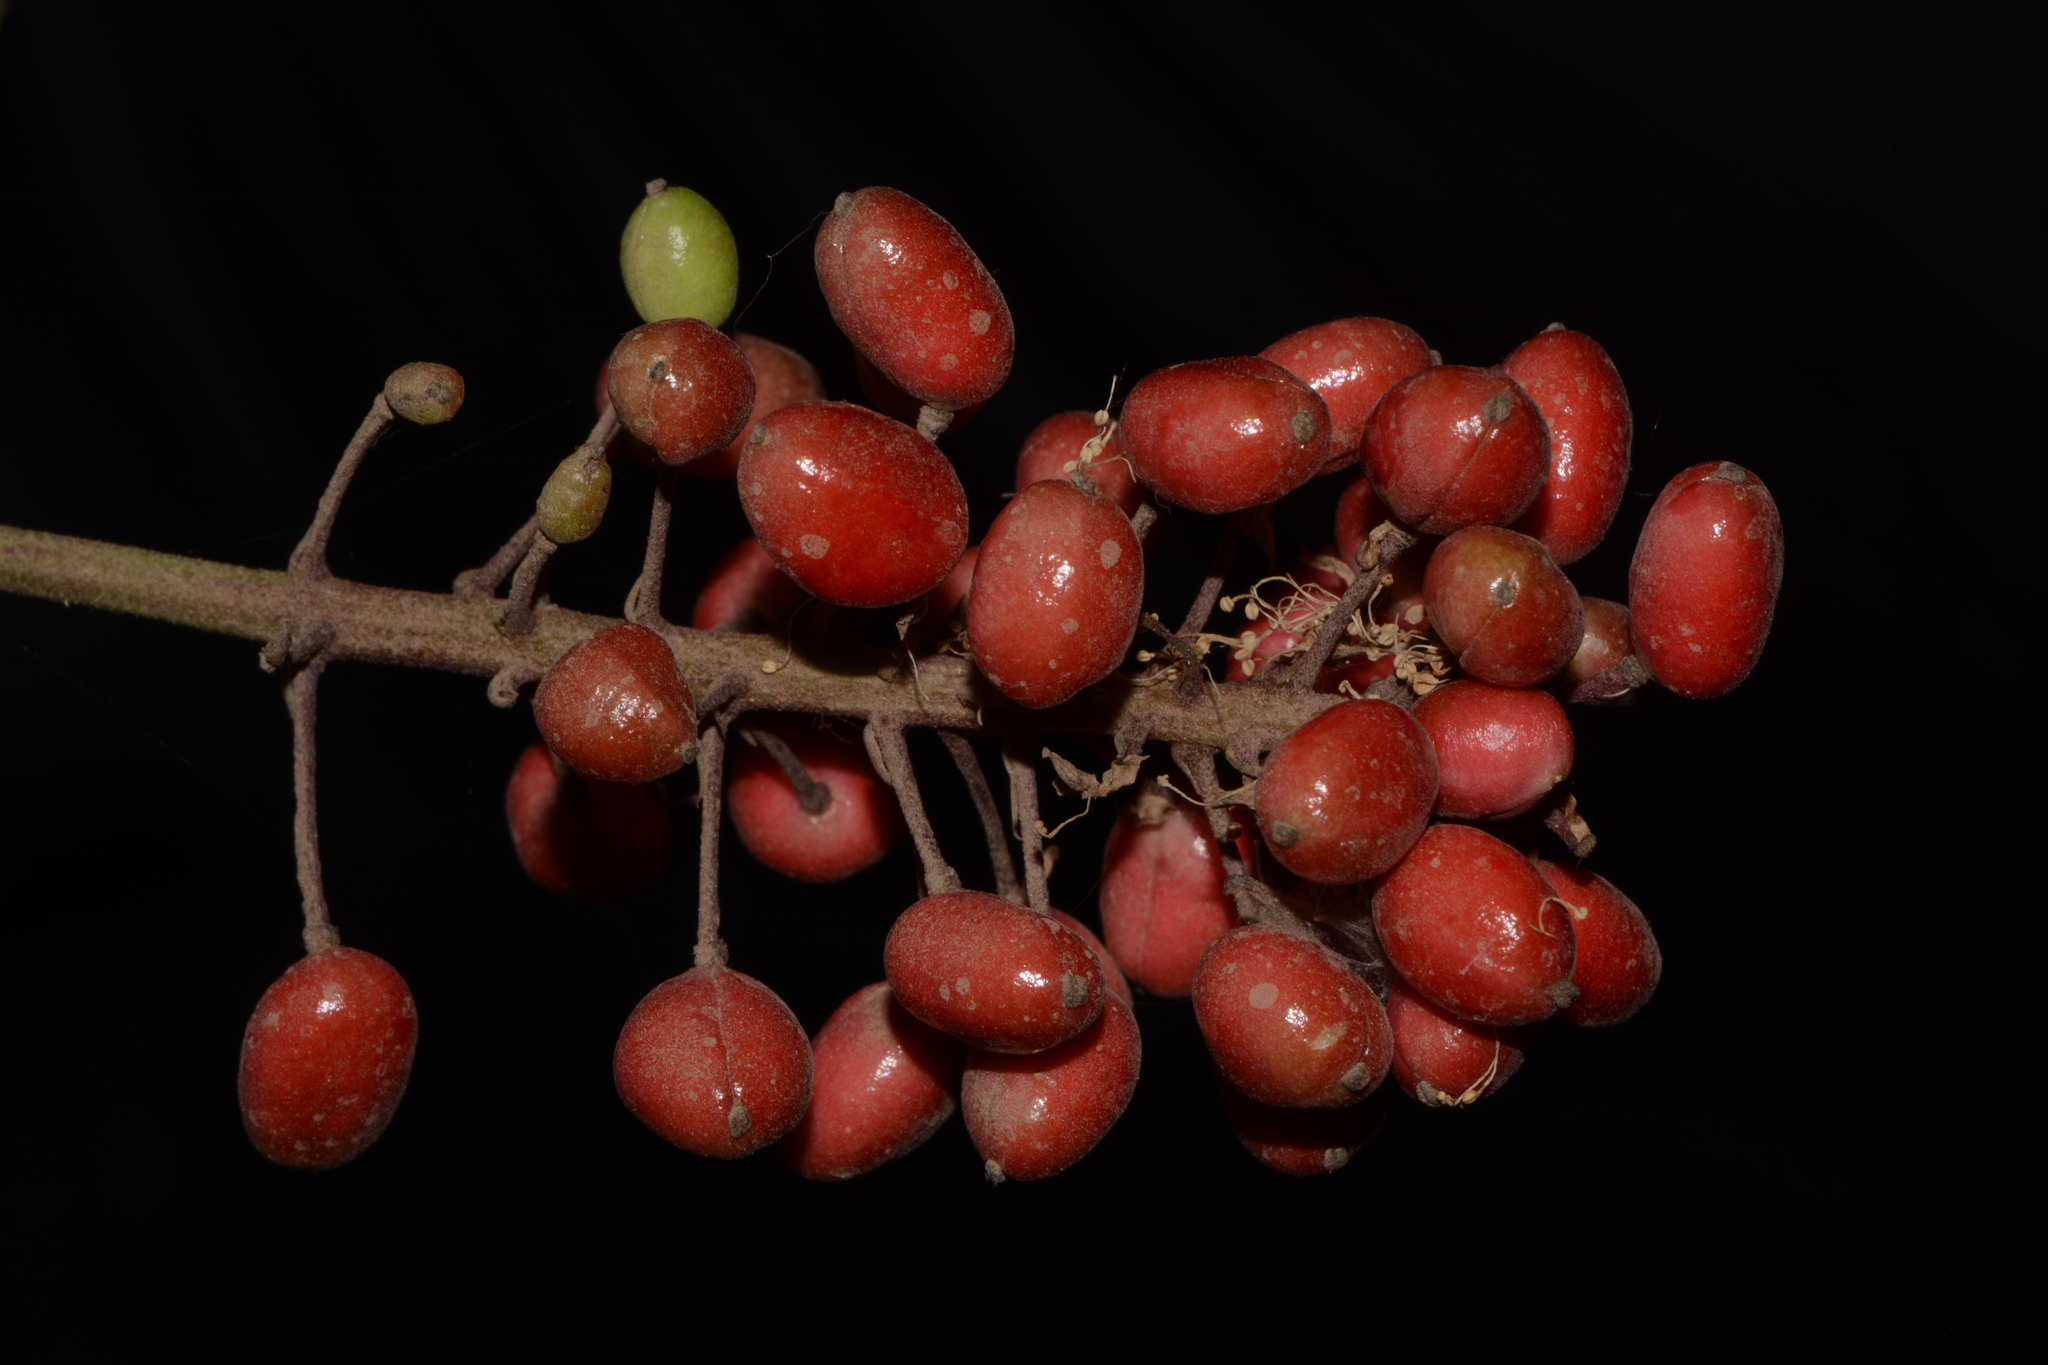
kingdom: Plantae
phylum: Tracheophyta
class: Magnoliopsida
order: Ranunculales
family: Ranunculaceae
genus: Actaea
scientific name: Actaea rubra
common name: Red baneberry
